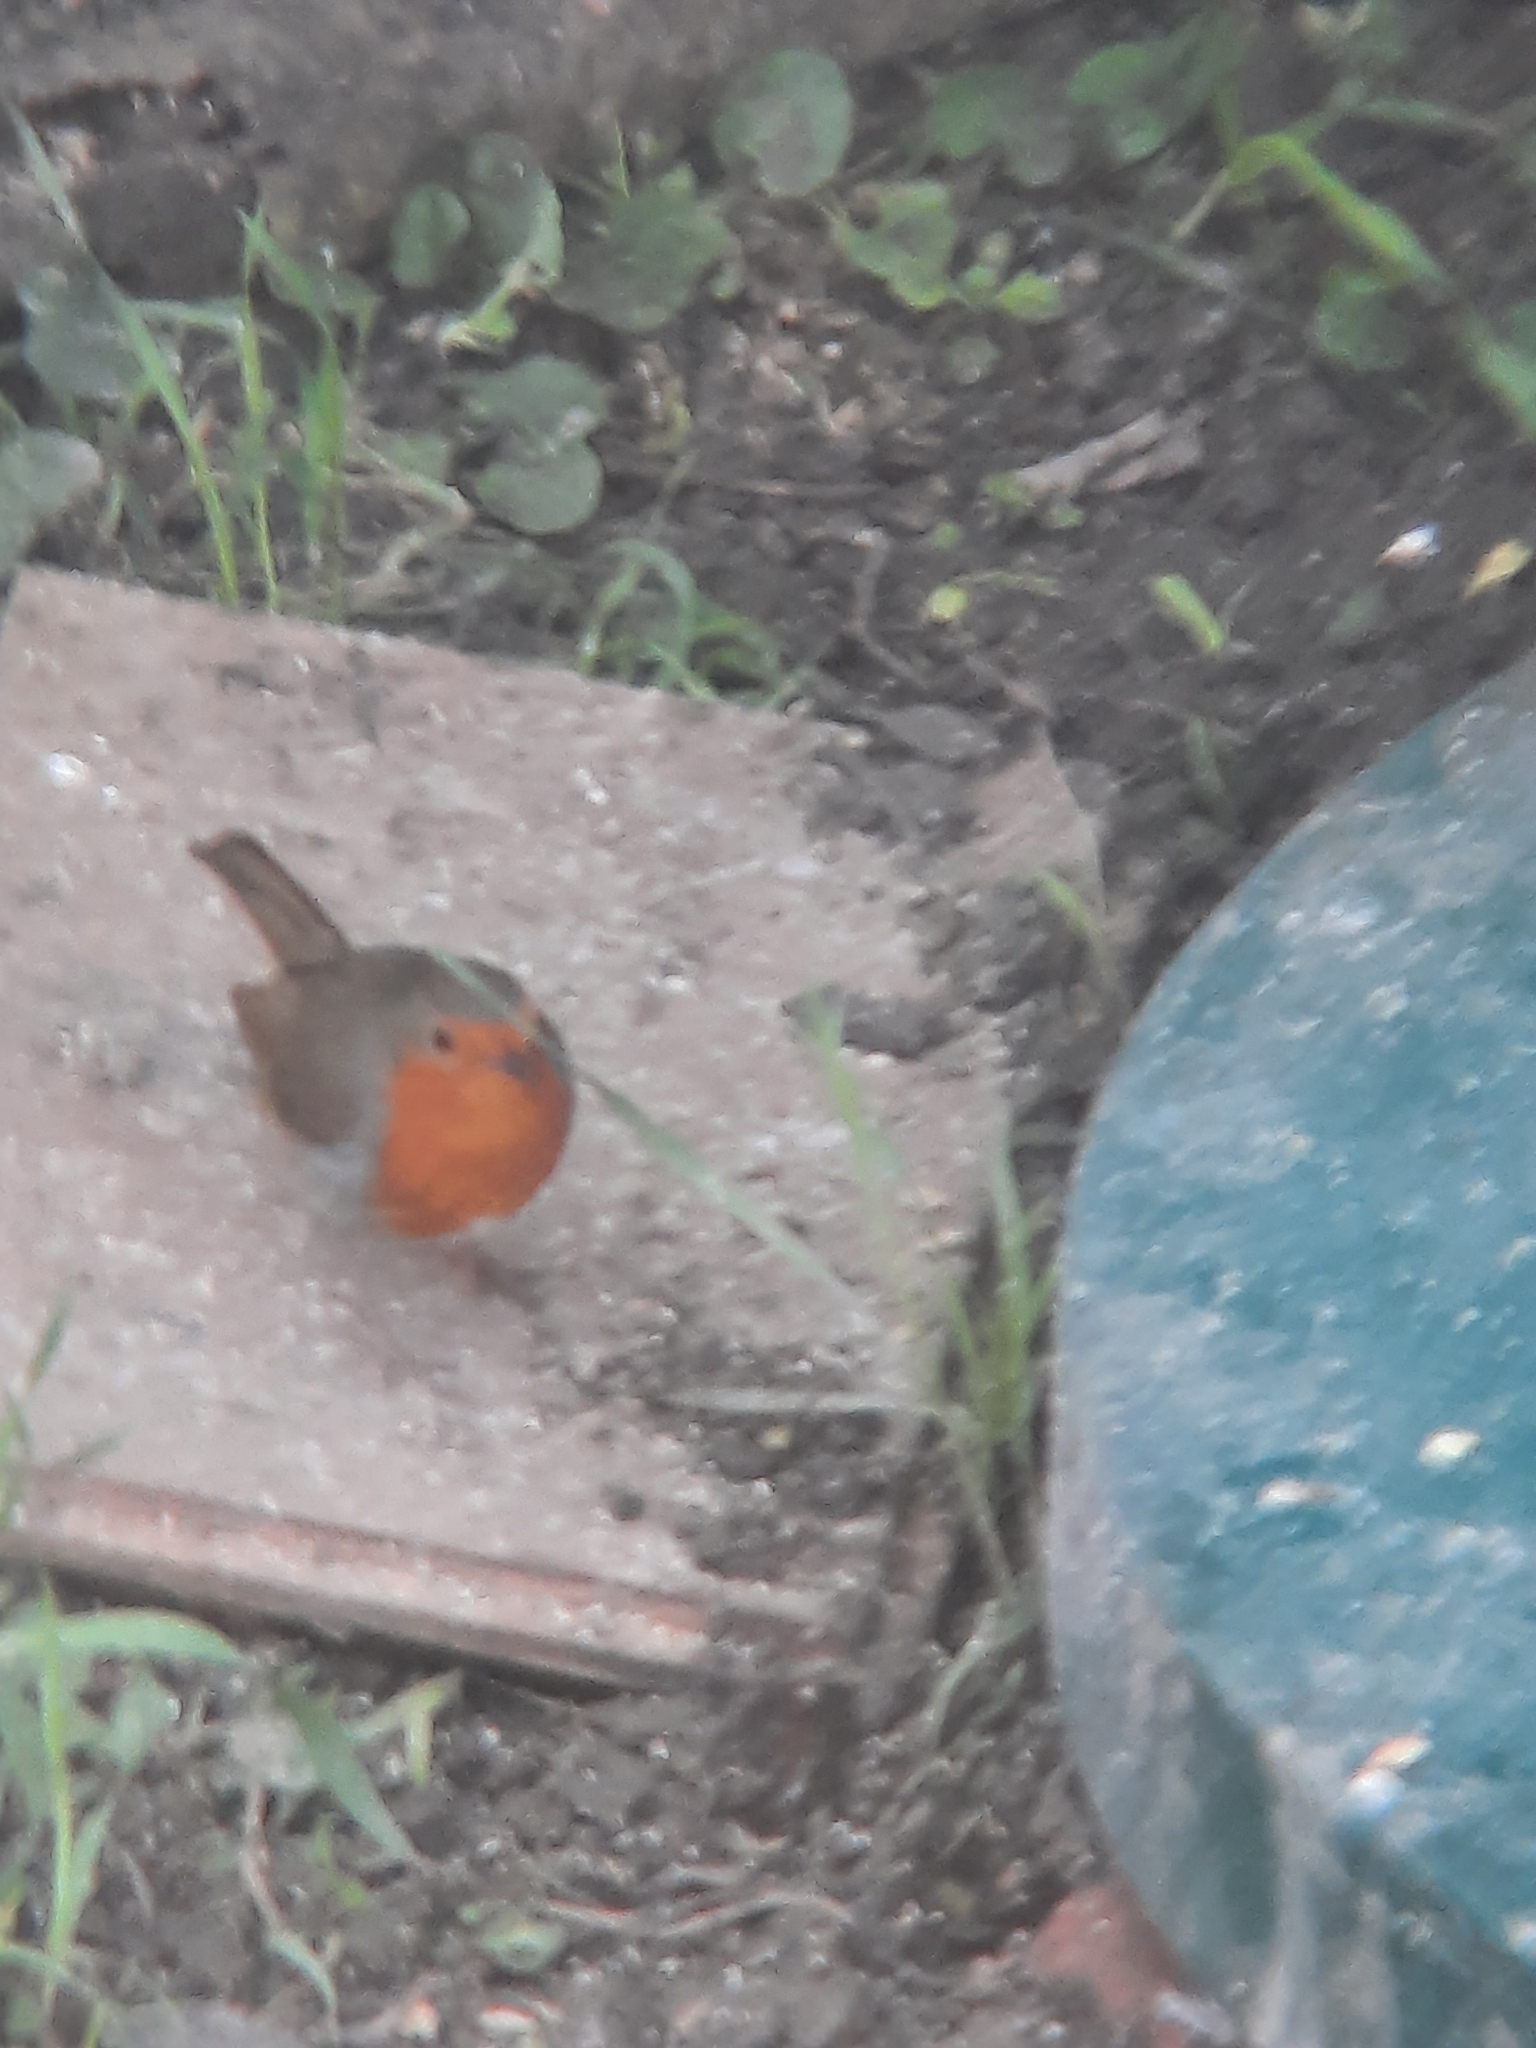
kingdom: Animalia
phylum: Chordata
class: Aves
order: Passeriformes
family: Muscicapidae
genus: Erithacus
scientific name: Erithacus rubecula
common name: European robin
